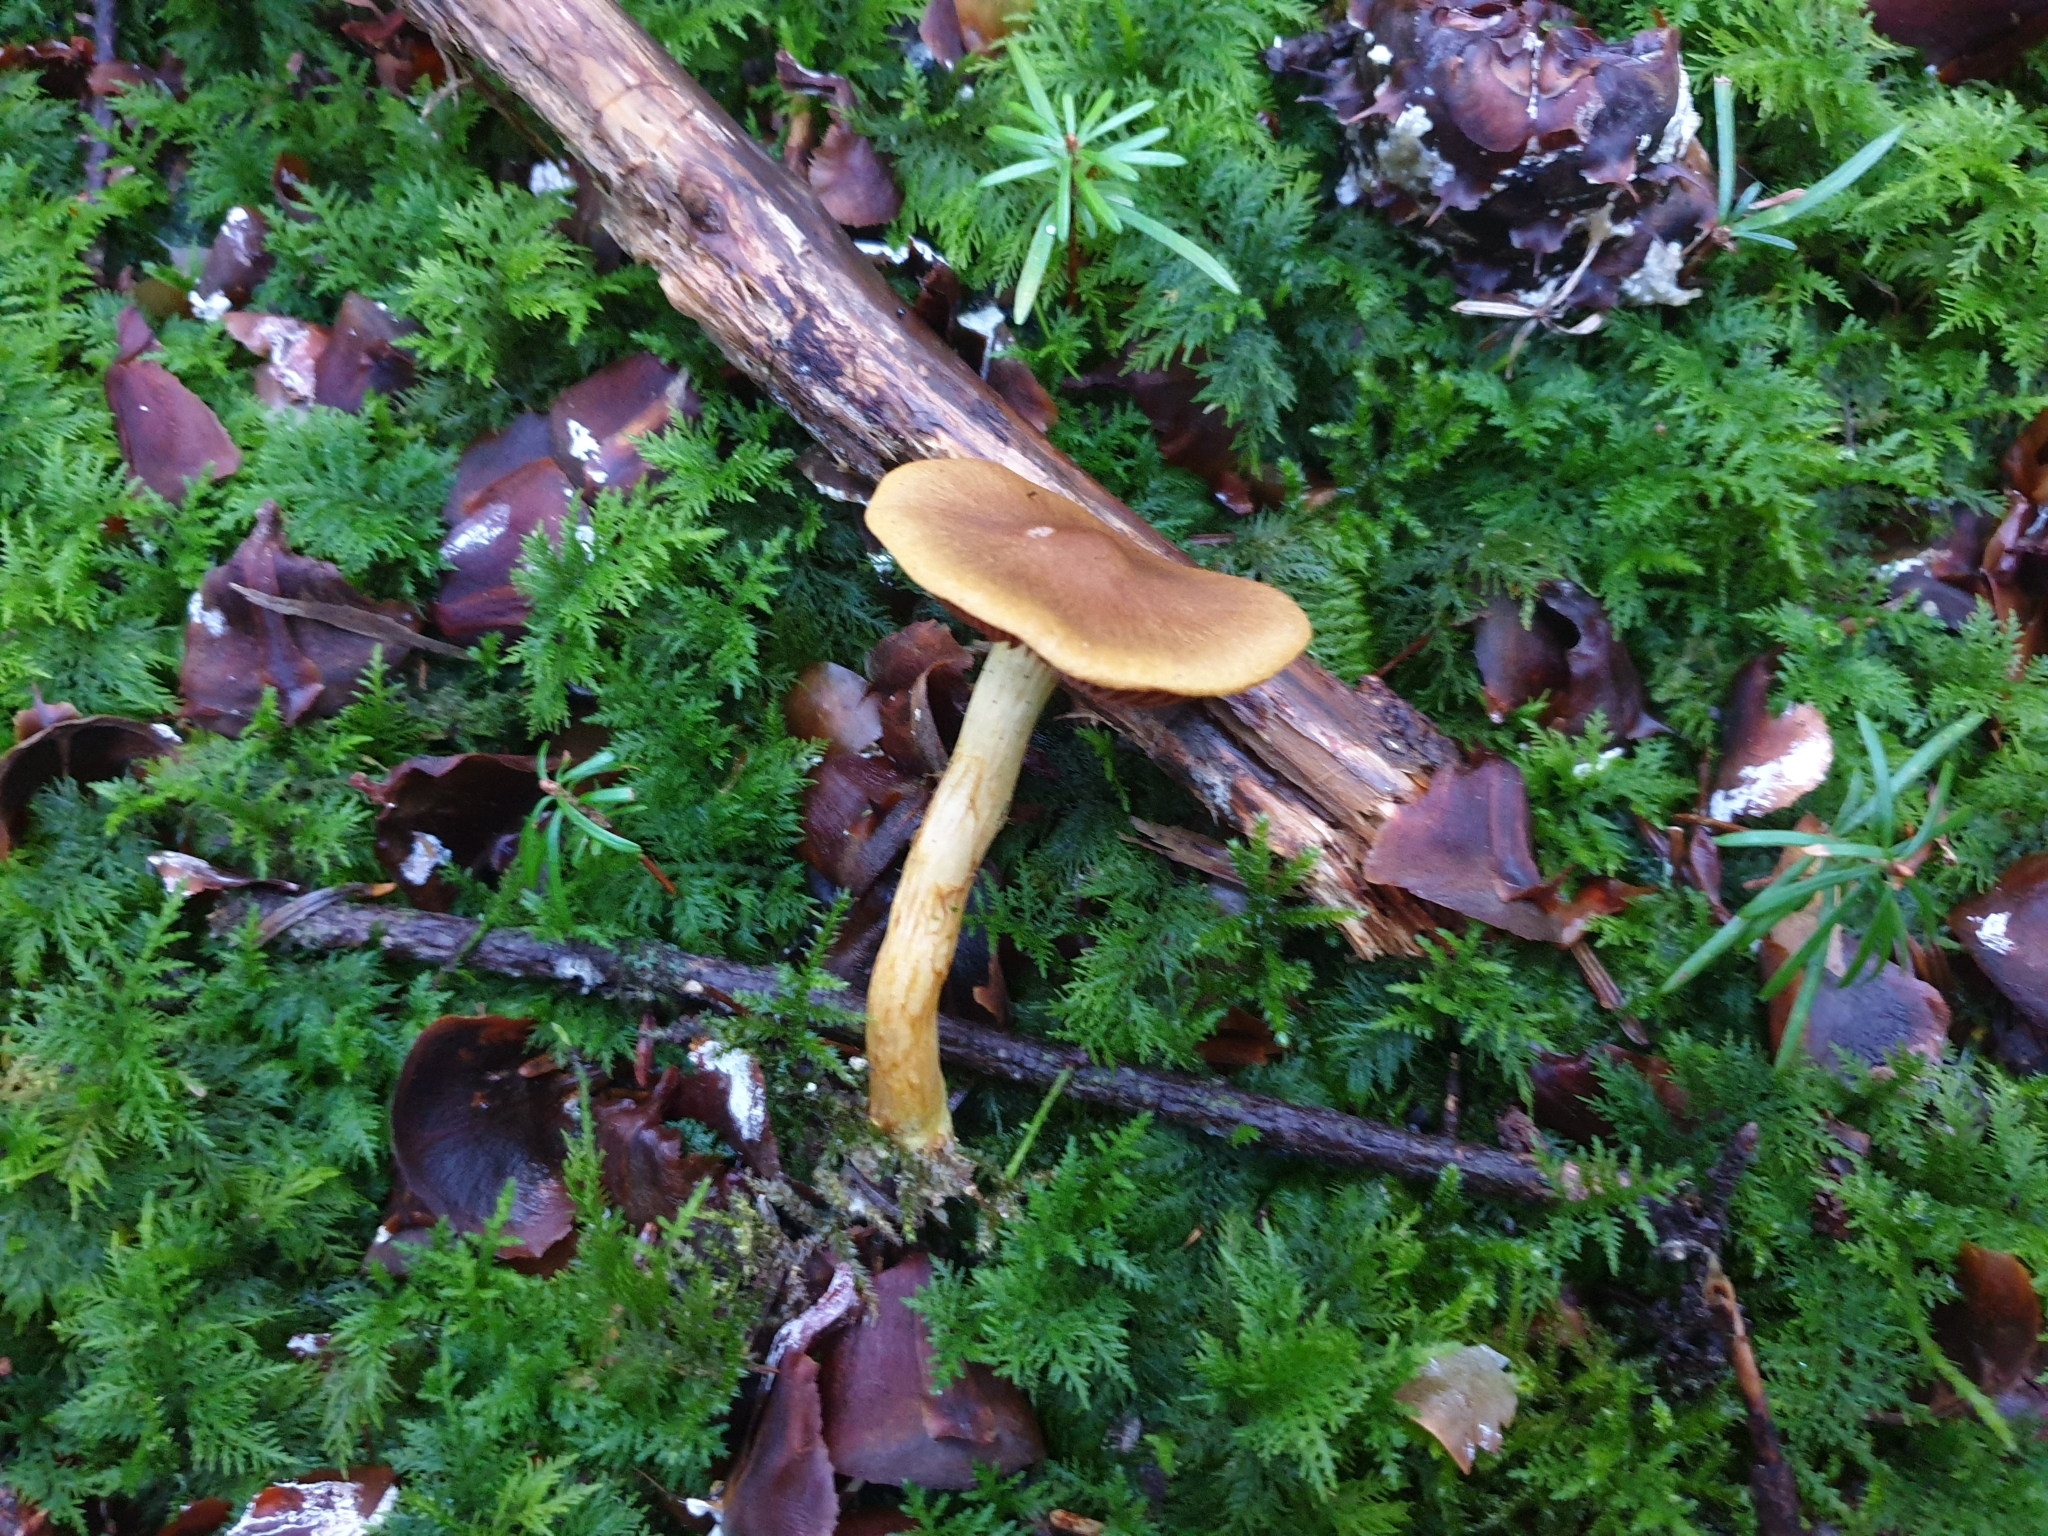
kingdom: Fungi
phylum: Basidiomycota
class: Agaricomycetes
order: Agaricales
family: Cortinariaceae
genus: Cortinarius
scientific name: Cortinarius semisanguineus
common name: Surprise webcap
